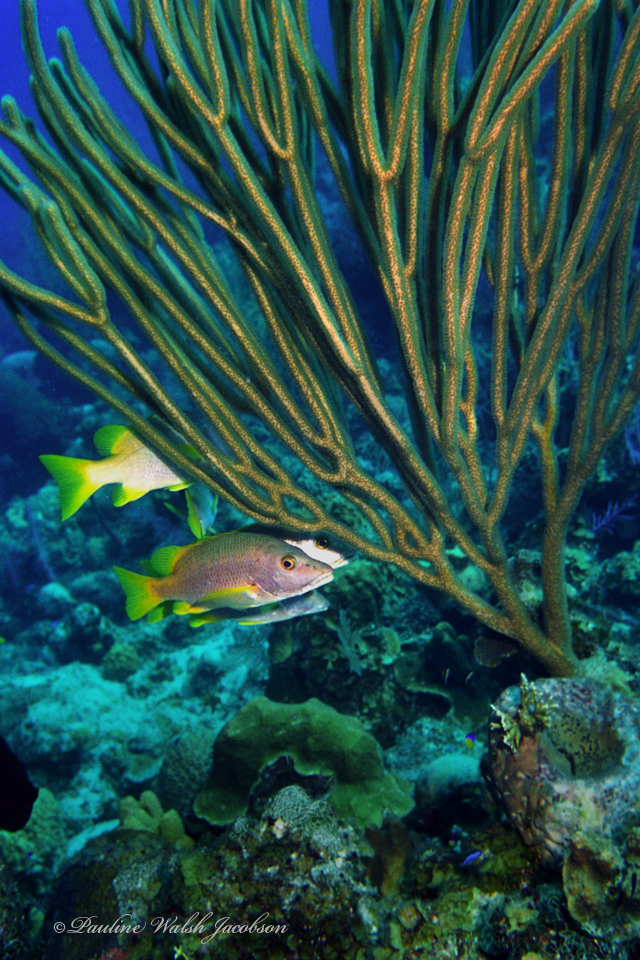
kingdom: Animalia
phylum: Chordata
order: Perciformes
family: Lutjanidae
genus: Lutjanus
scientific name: Lutjanus apodus
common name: Schoolmaster
